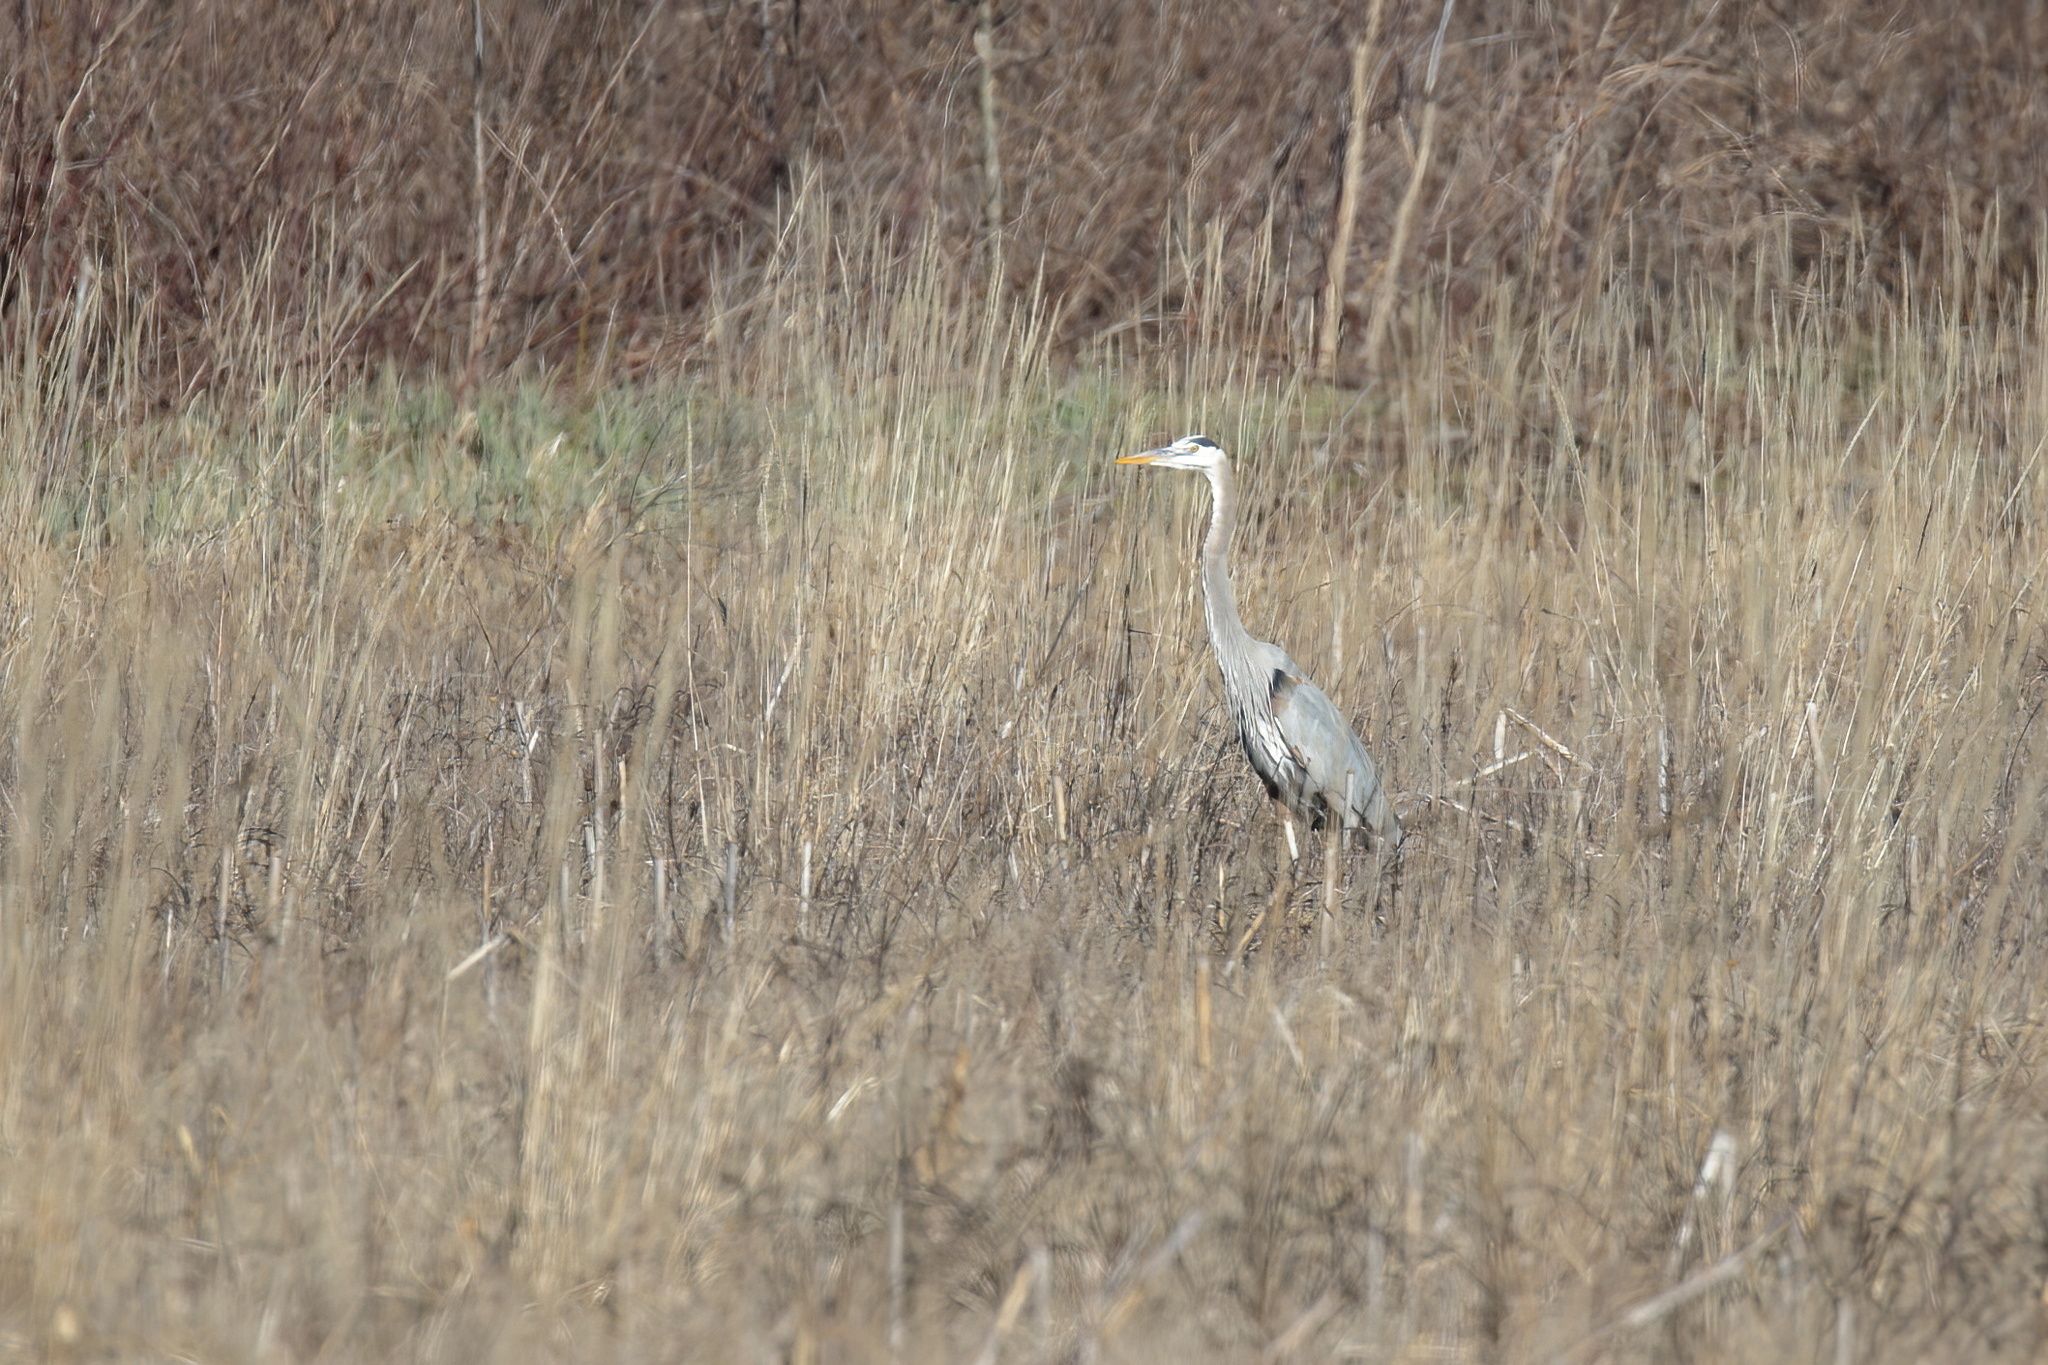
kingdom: Animalia
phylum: Chordata
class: Aves
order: Pelecaniformes
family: Ardeidae
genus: Ardea
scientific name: Ardea herodias
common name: Great blue heron
